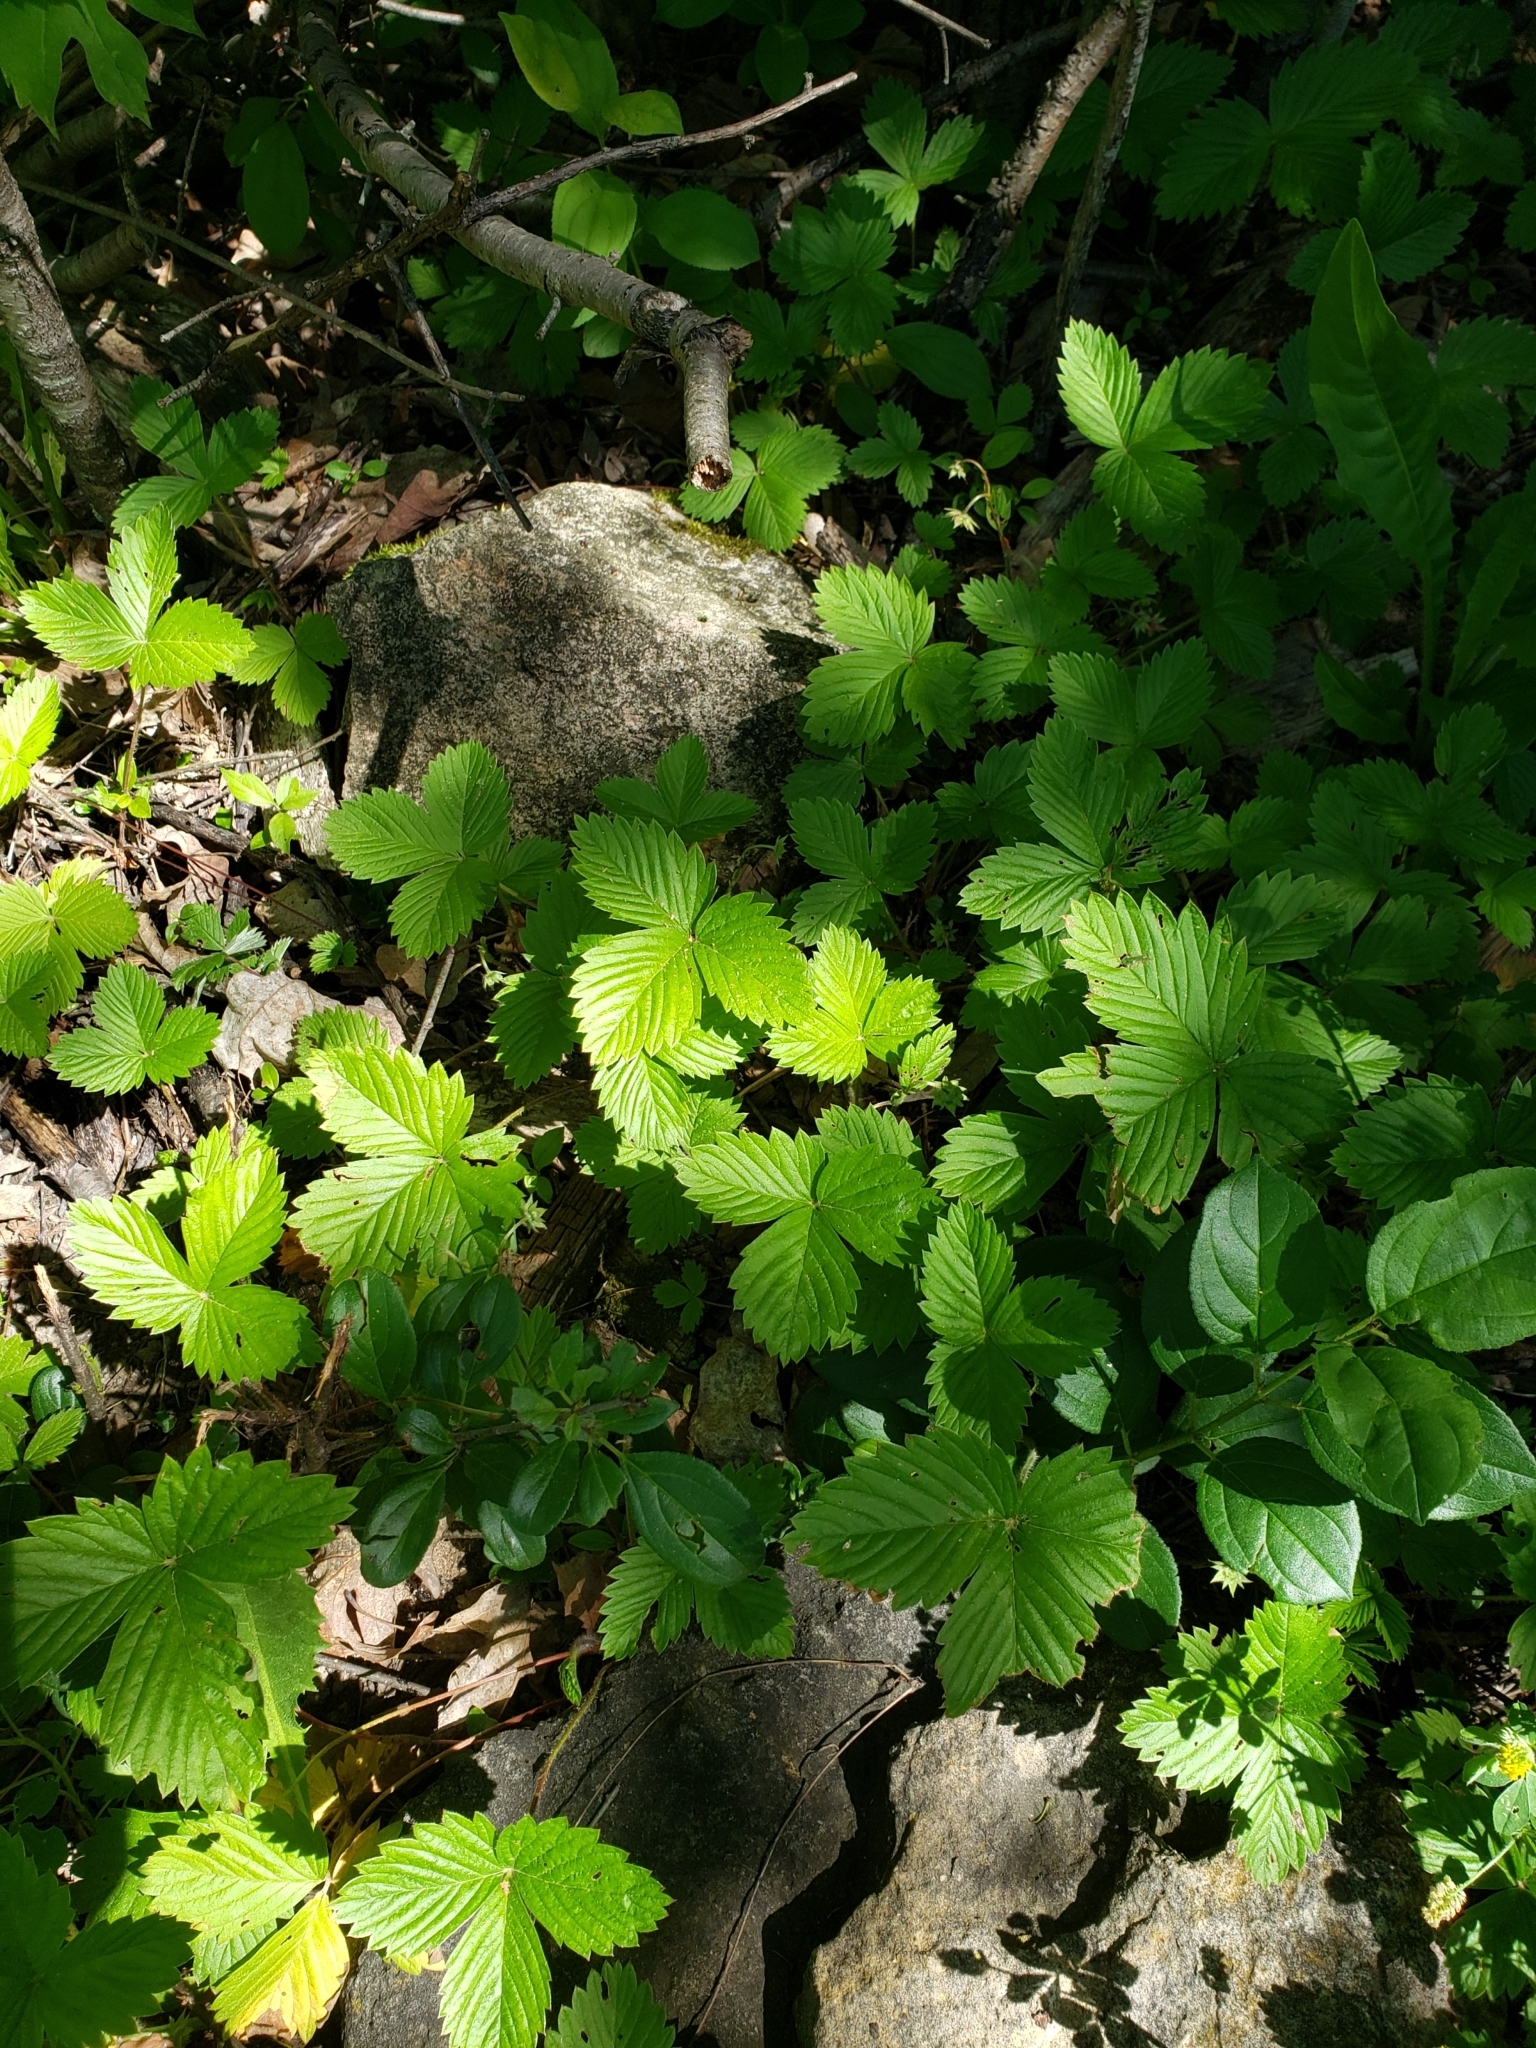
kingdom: Plantae
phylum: Tracheophyta
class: Magnoliopsida
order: Rosales
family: Rosaceae
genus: Fragaria
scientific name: Fragaria vesca
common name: Wild strawberry
